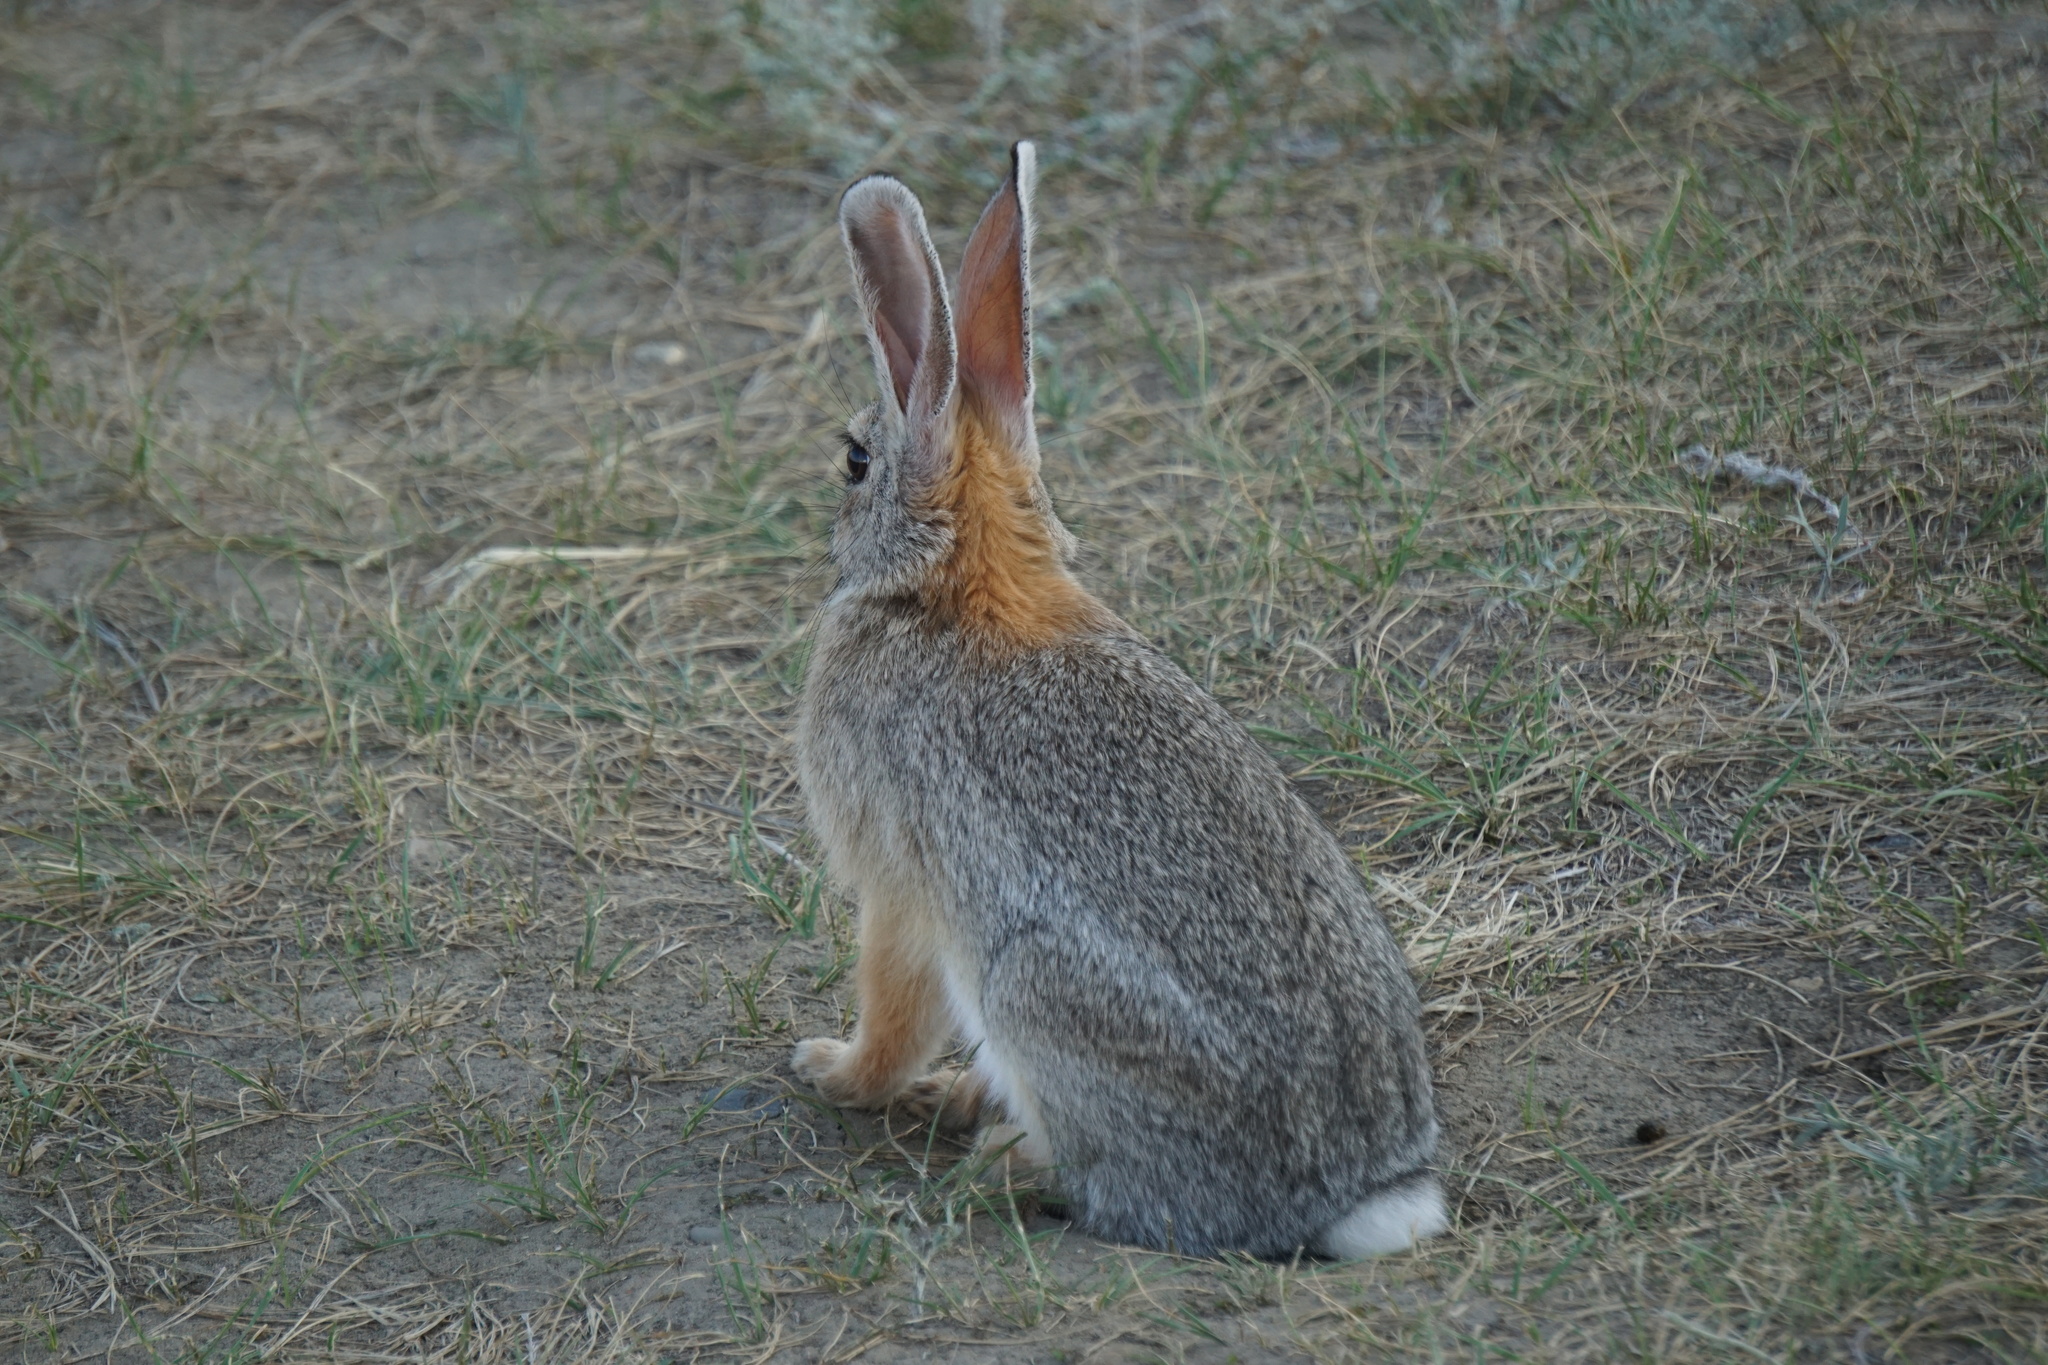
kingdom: Animalia
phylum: Chordata
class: Mammalia
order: Lagomorpha
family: Leporidae
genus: Sylvilagus
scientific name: Sylvilagus nuttallii
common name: Mountain cottontail
